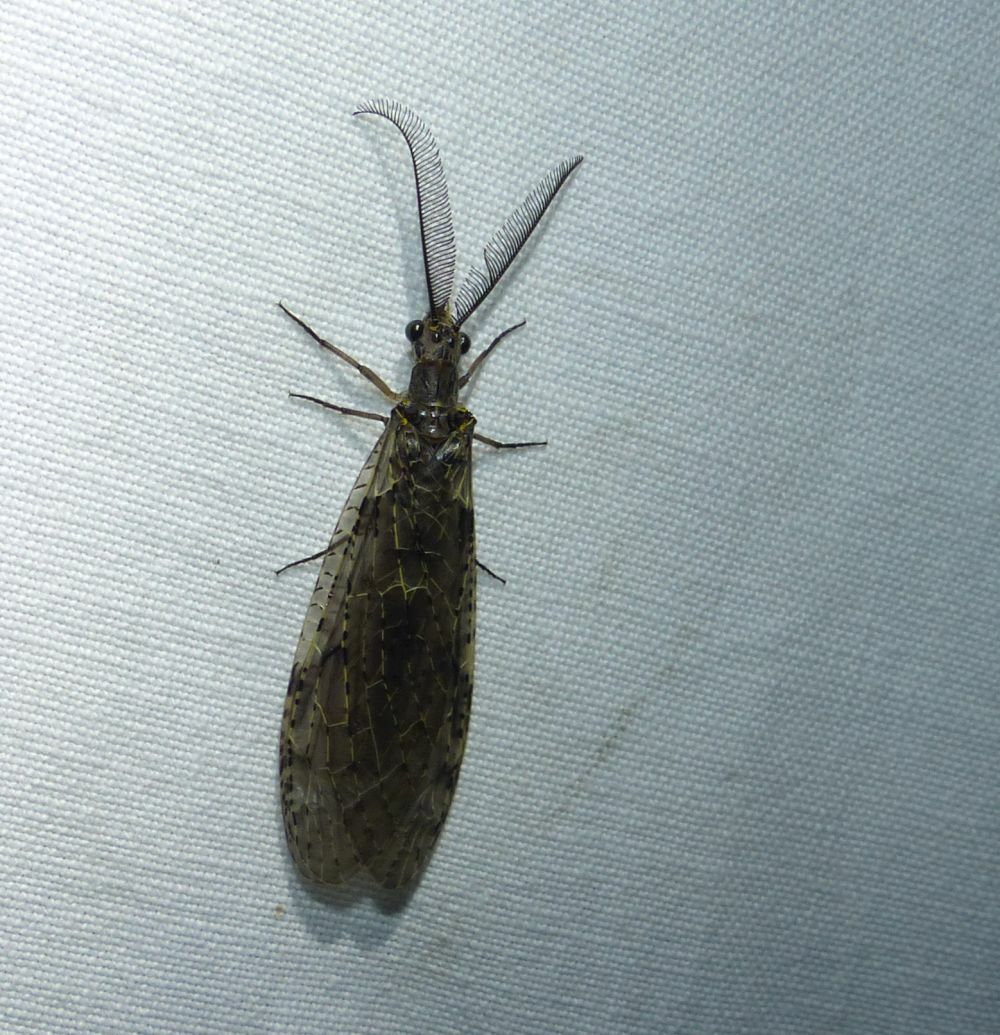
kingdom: Animalia
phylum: Arthropoda
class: Insecta
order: Megaloptera
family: Corydalidae
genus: Chauliodes
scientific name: Chauliodes rastricornis
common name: Spring fishfly
